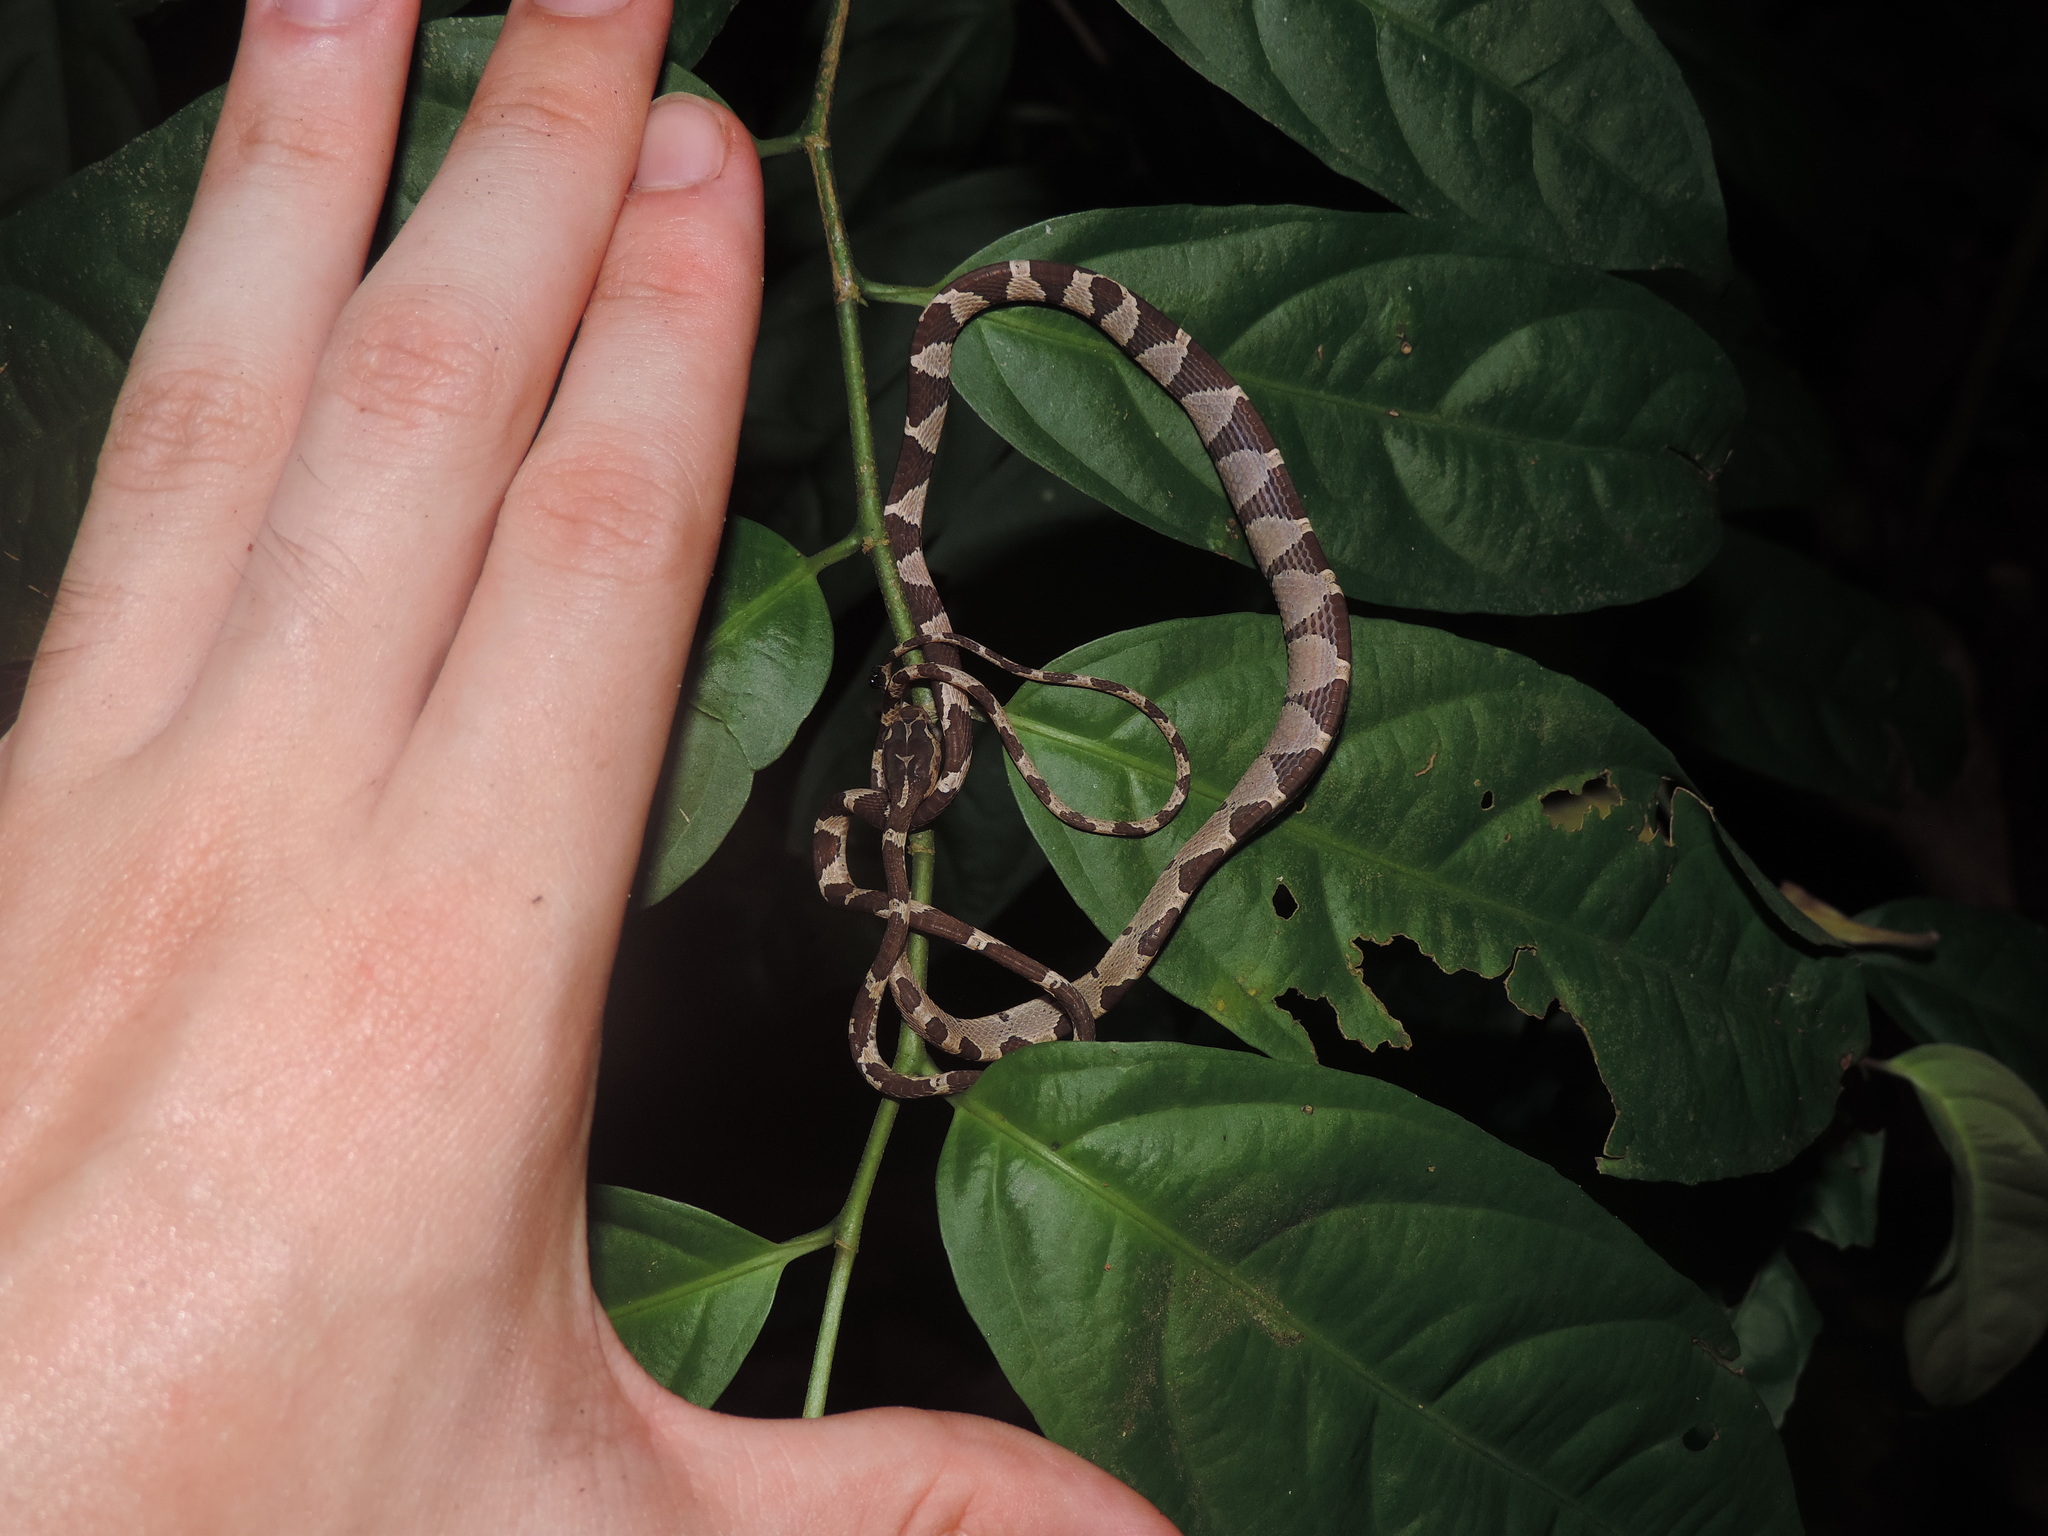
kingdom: Animalia
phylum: Chordata
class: Squamata
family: Colubridae
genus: Imantodes
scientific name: Imantodes cenchoa
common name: Blunthead tree snake
